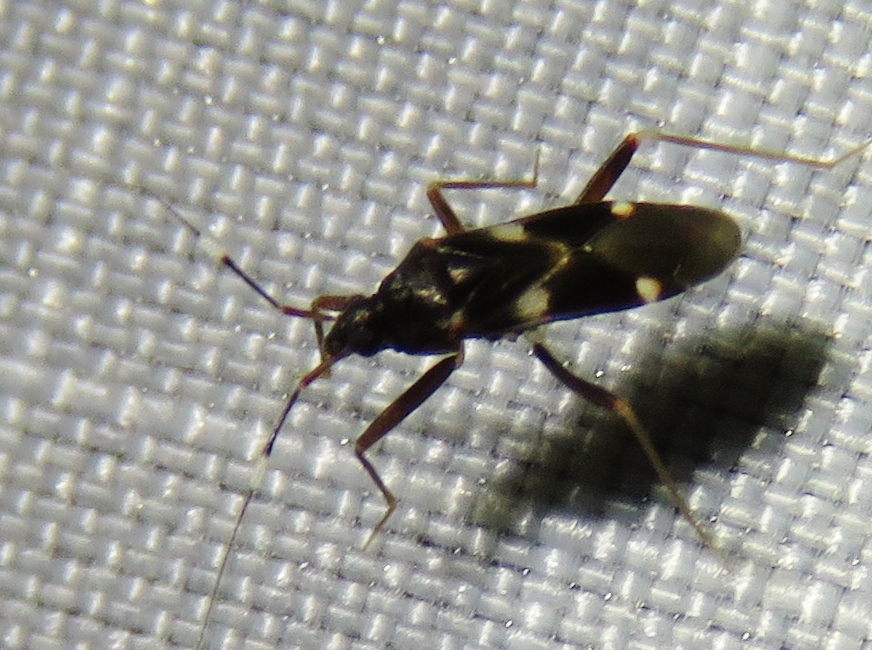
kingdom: Animalia
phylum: Arthropoda
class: Insecta
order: Hemiptera
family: Miridae
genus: Fulvius
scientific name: Fulvius imbecilis
